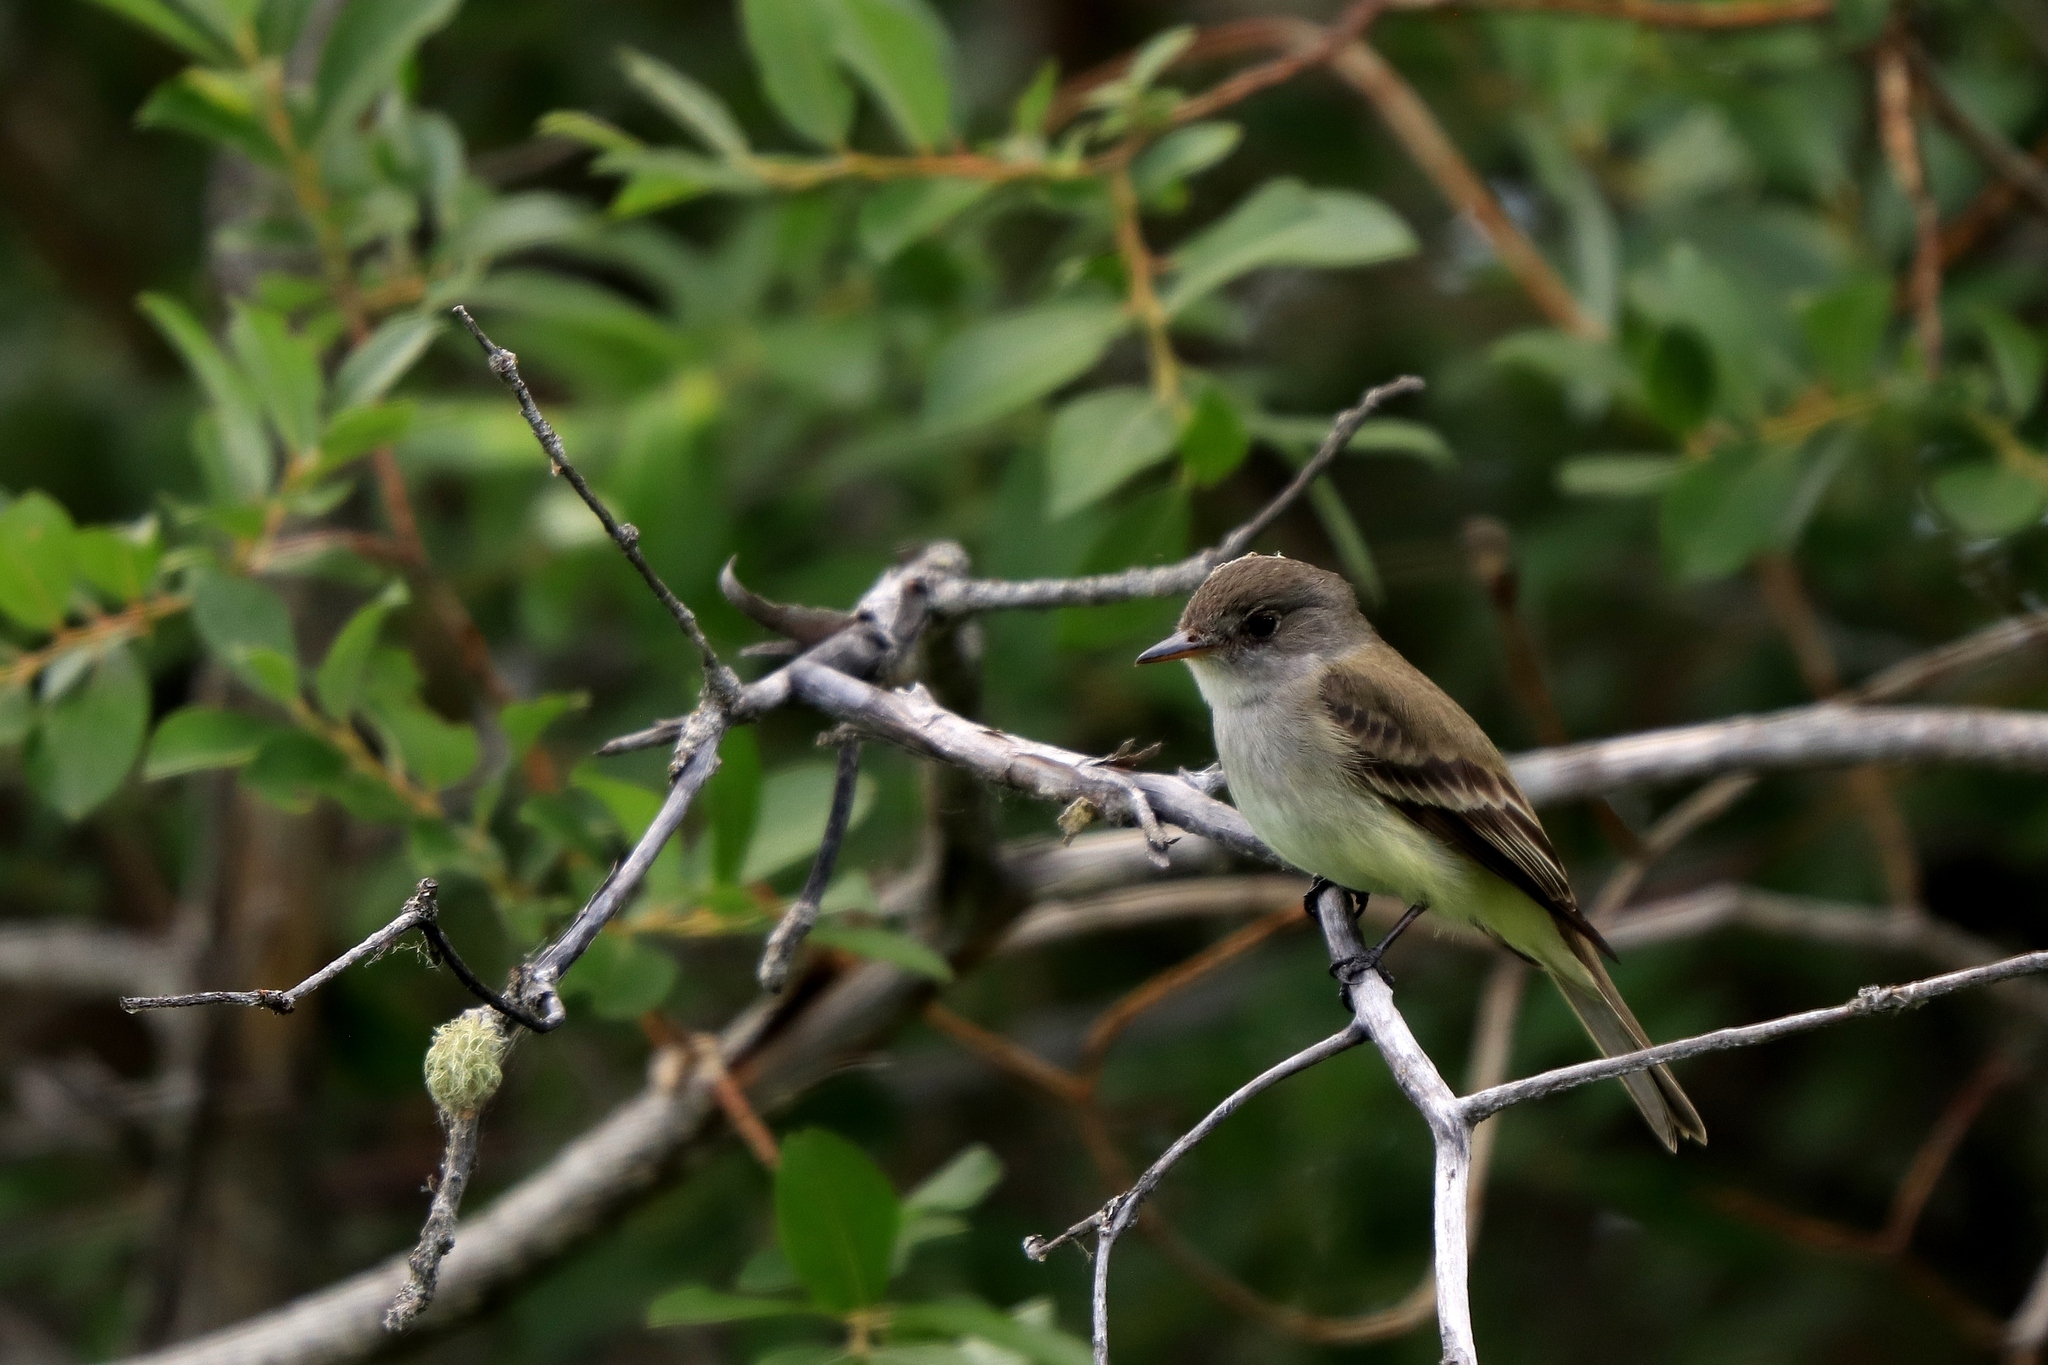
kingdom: Animalia
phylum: Chordata
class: Aves
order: Passeriformes
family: Tyrannidae
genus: Empidonax
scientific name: Empidonax traillii
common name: Willow flycatcher
